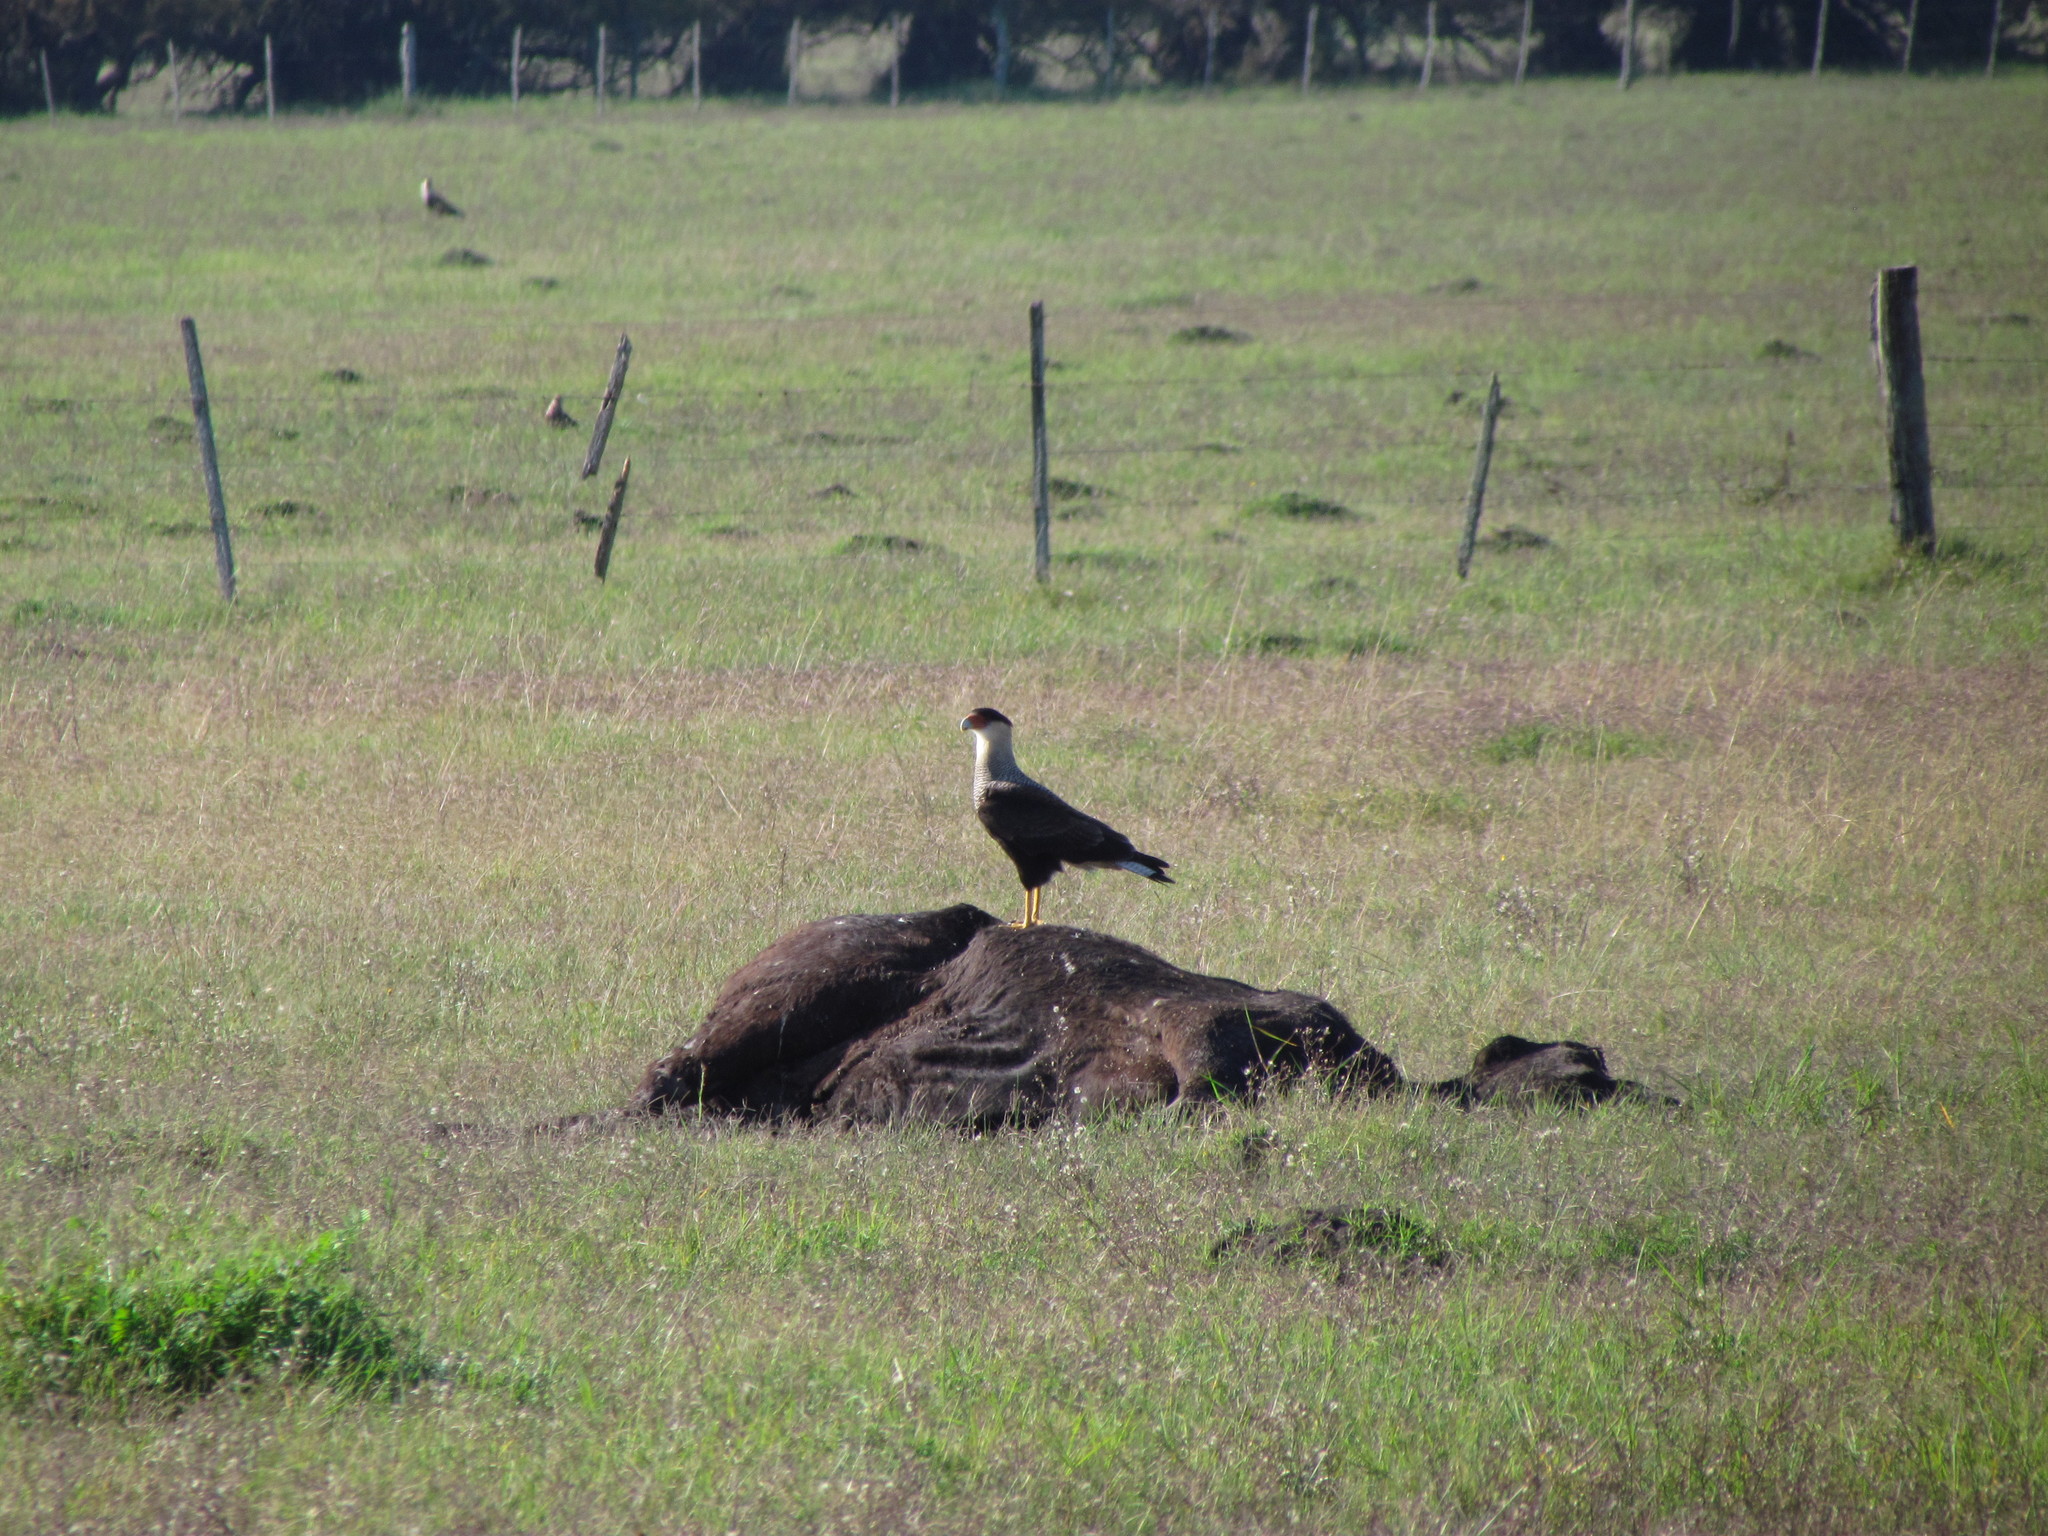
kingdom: Animalia
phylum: Chordata
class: Aves
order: Falconiformes
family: Falconidae
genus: Caracara
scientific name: Caracara plancus
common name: Southern caracara
